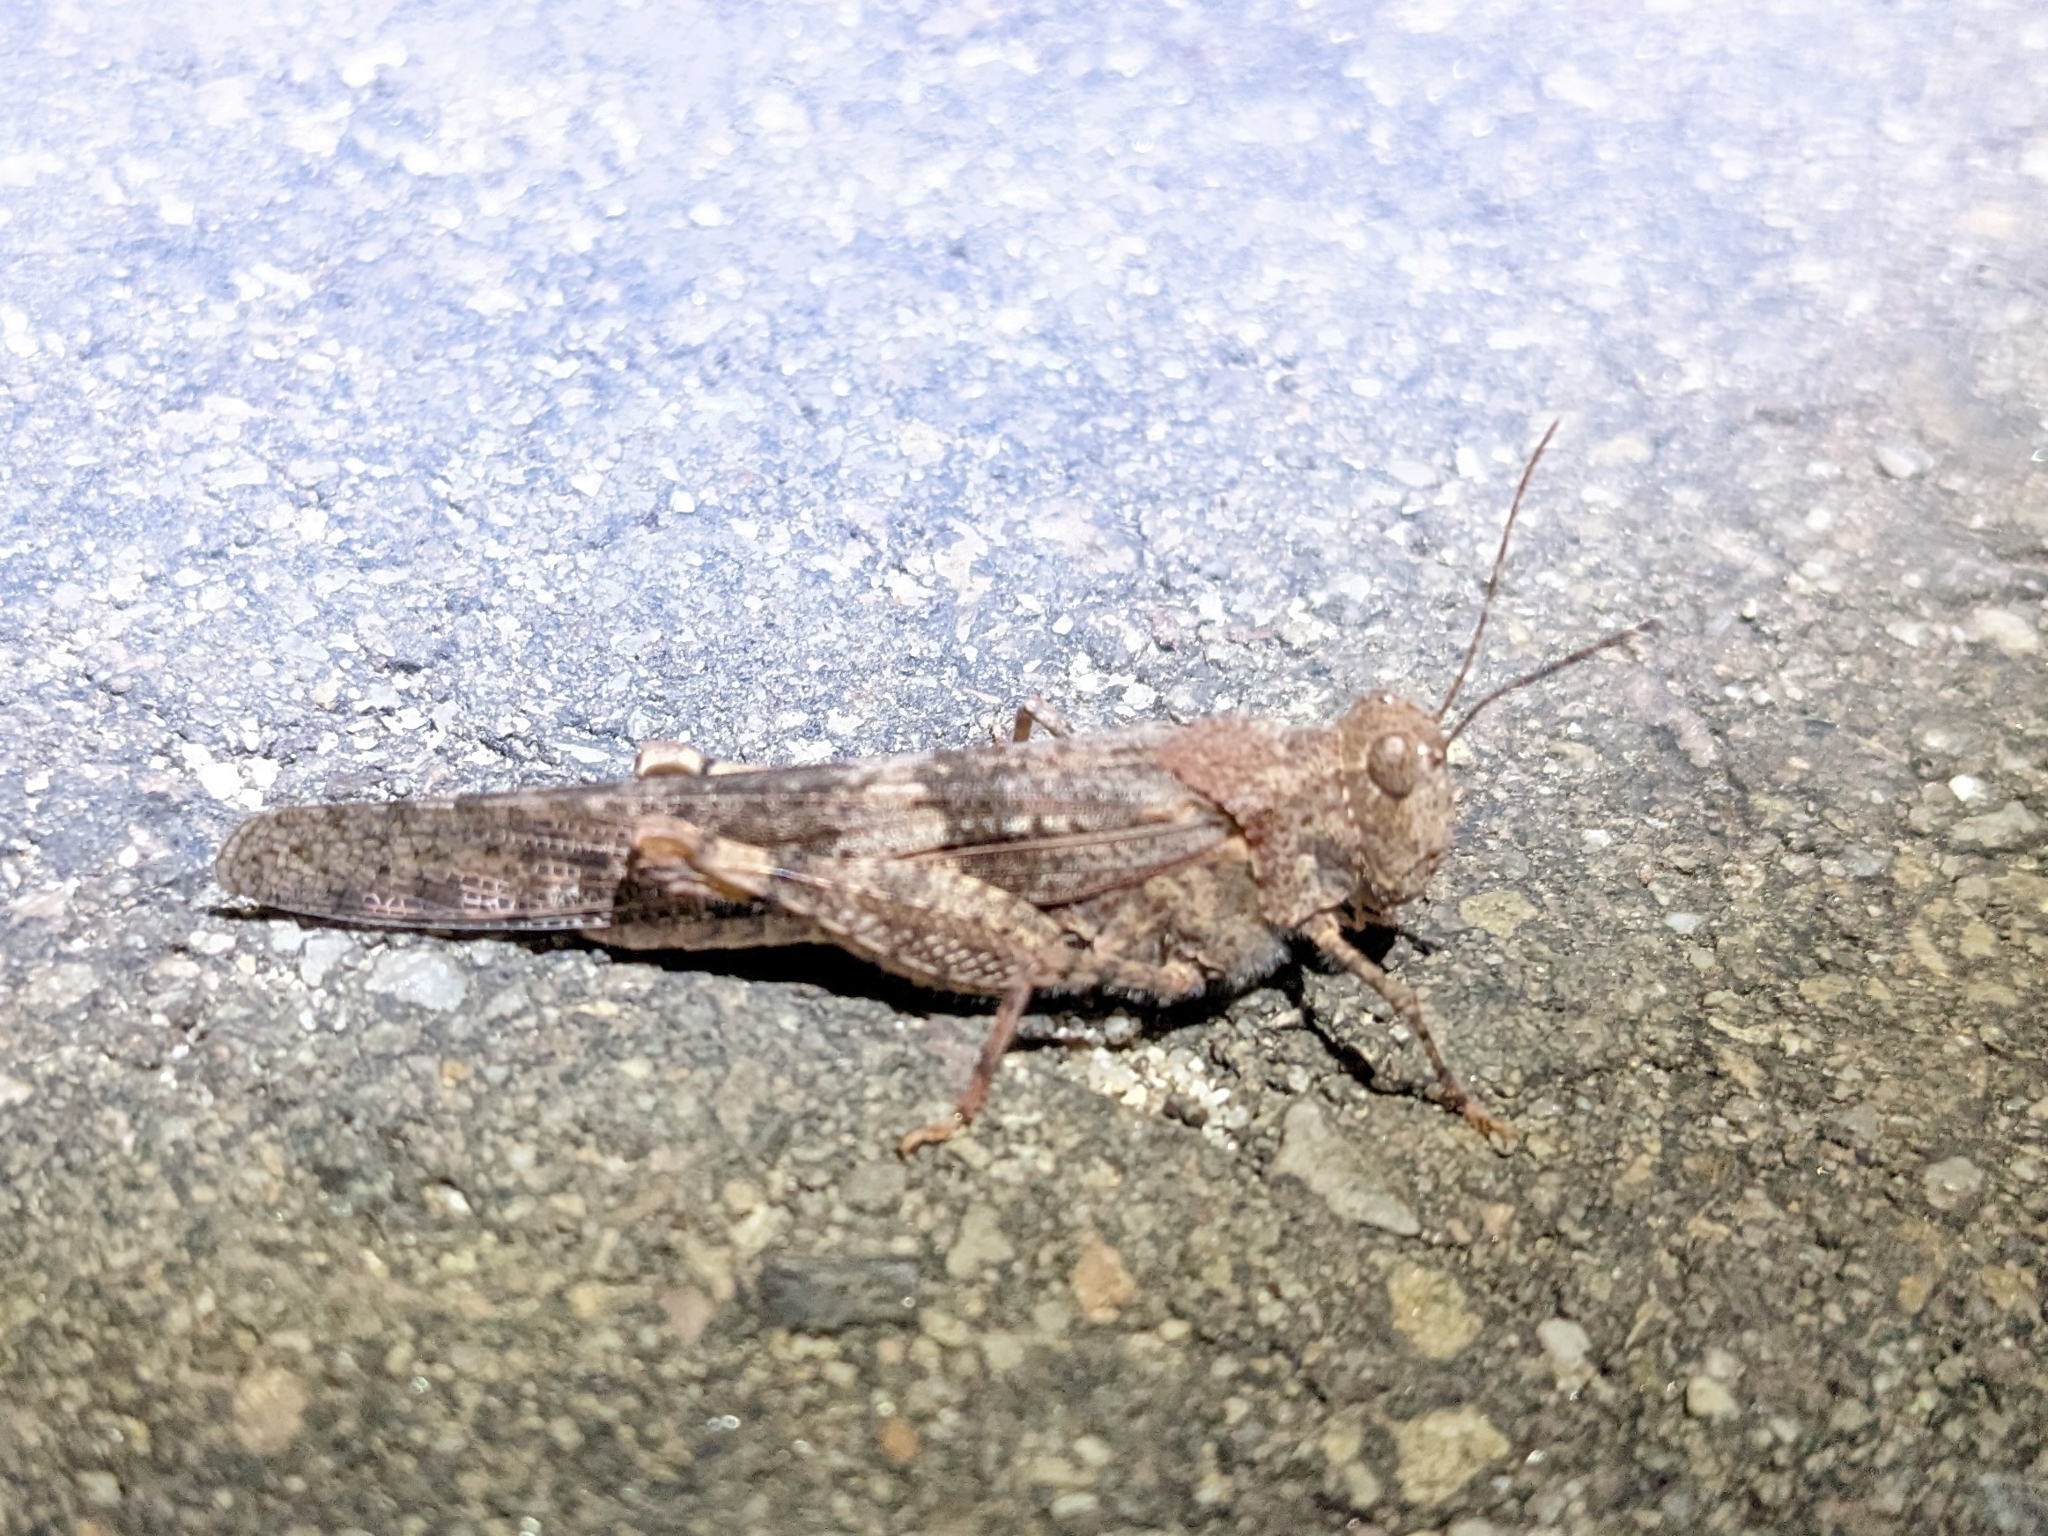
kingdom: Animalia
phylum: Arthropoda
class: Insecta
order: Orthoptera
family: Acrididae
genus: Trimerotropis
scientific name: Trimerotropis pallidipennis
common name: Pallid-winged grasshopper
